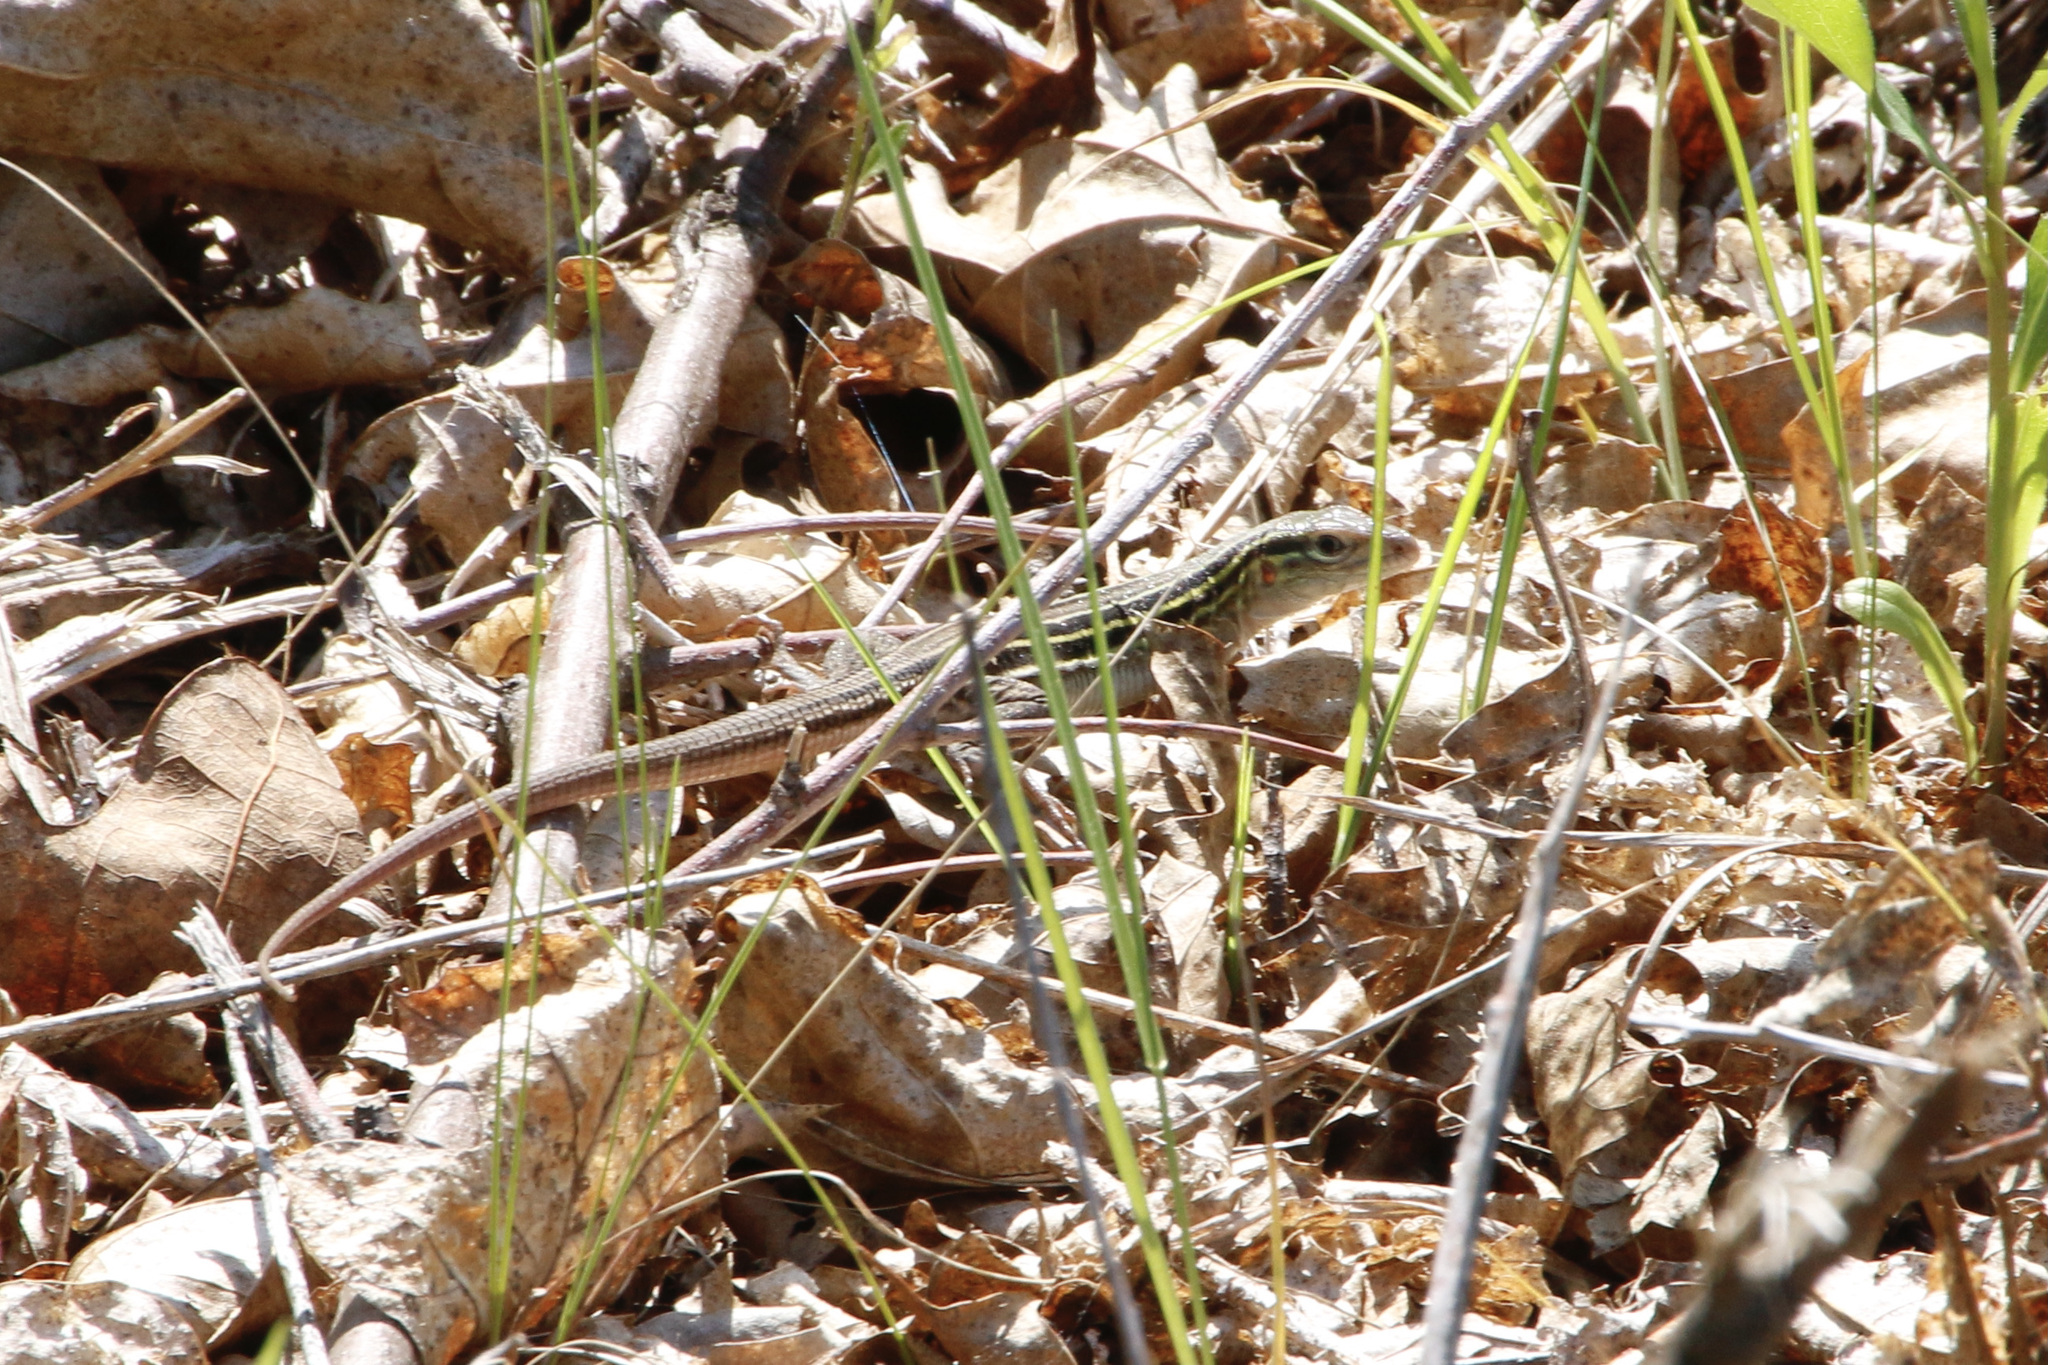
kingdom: Animalia
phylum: Chordata
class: Squamata
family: Teiidae
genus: Aspidoscelis
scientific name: Aspidoscelis sexlineatus
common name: Six-lined racerunner
